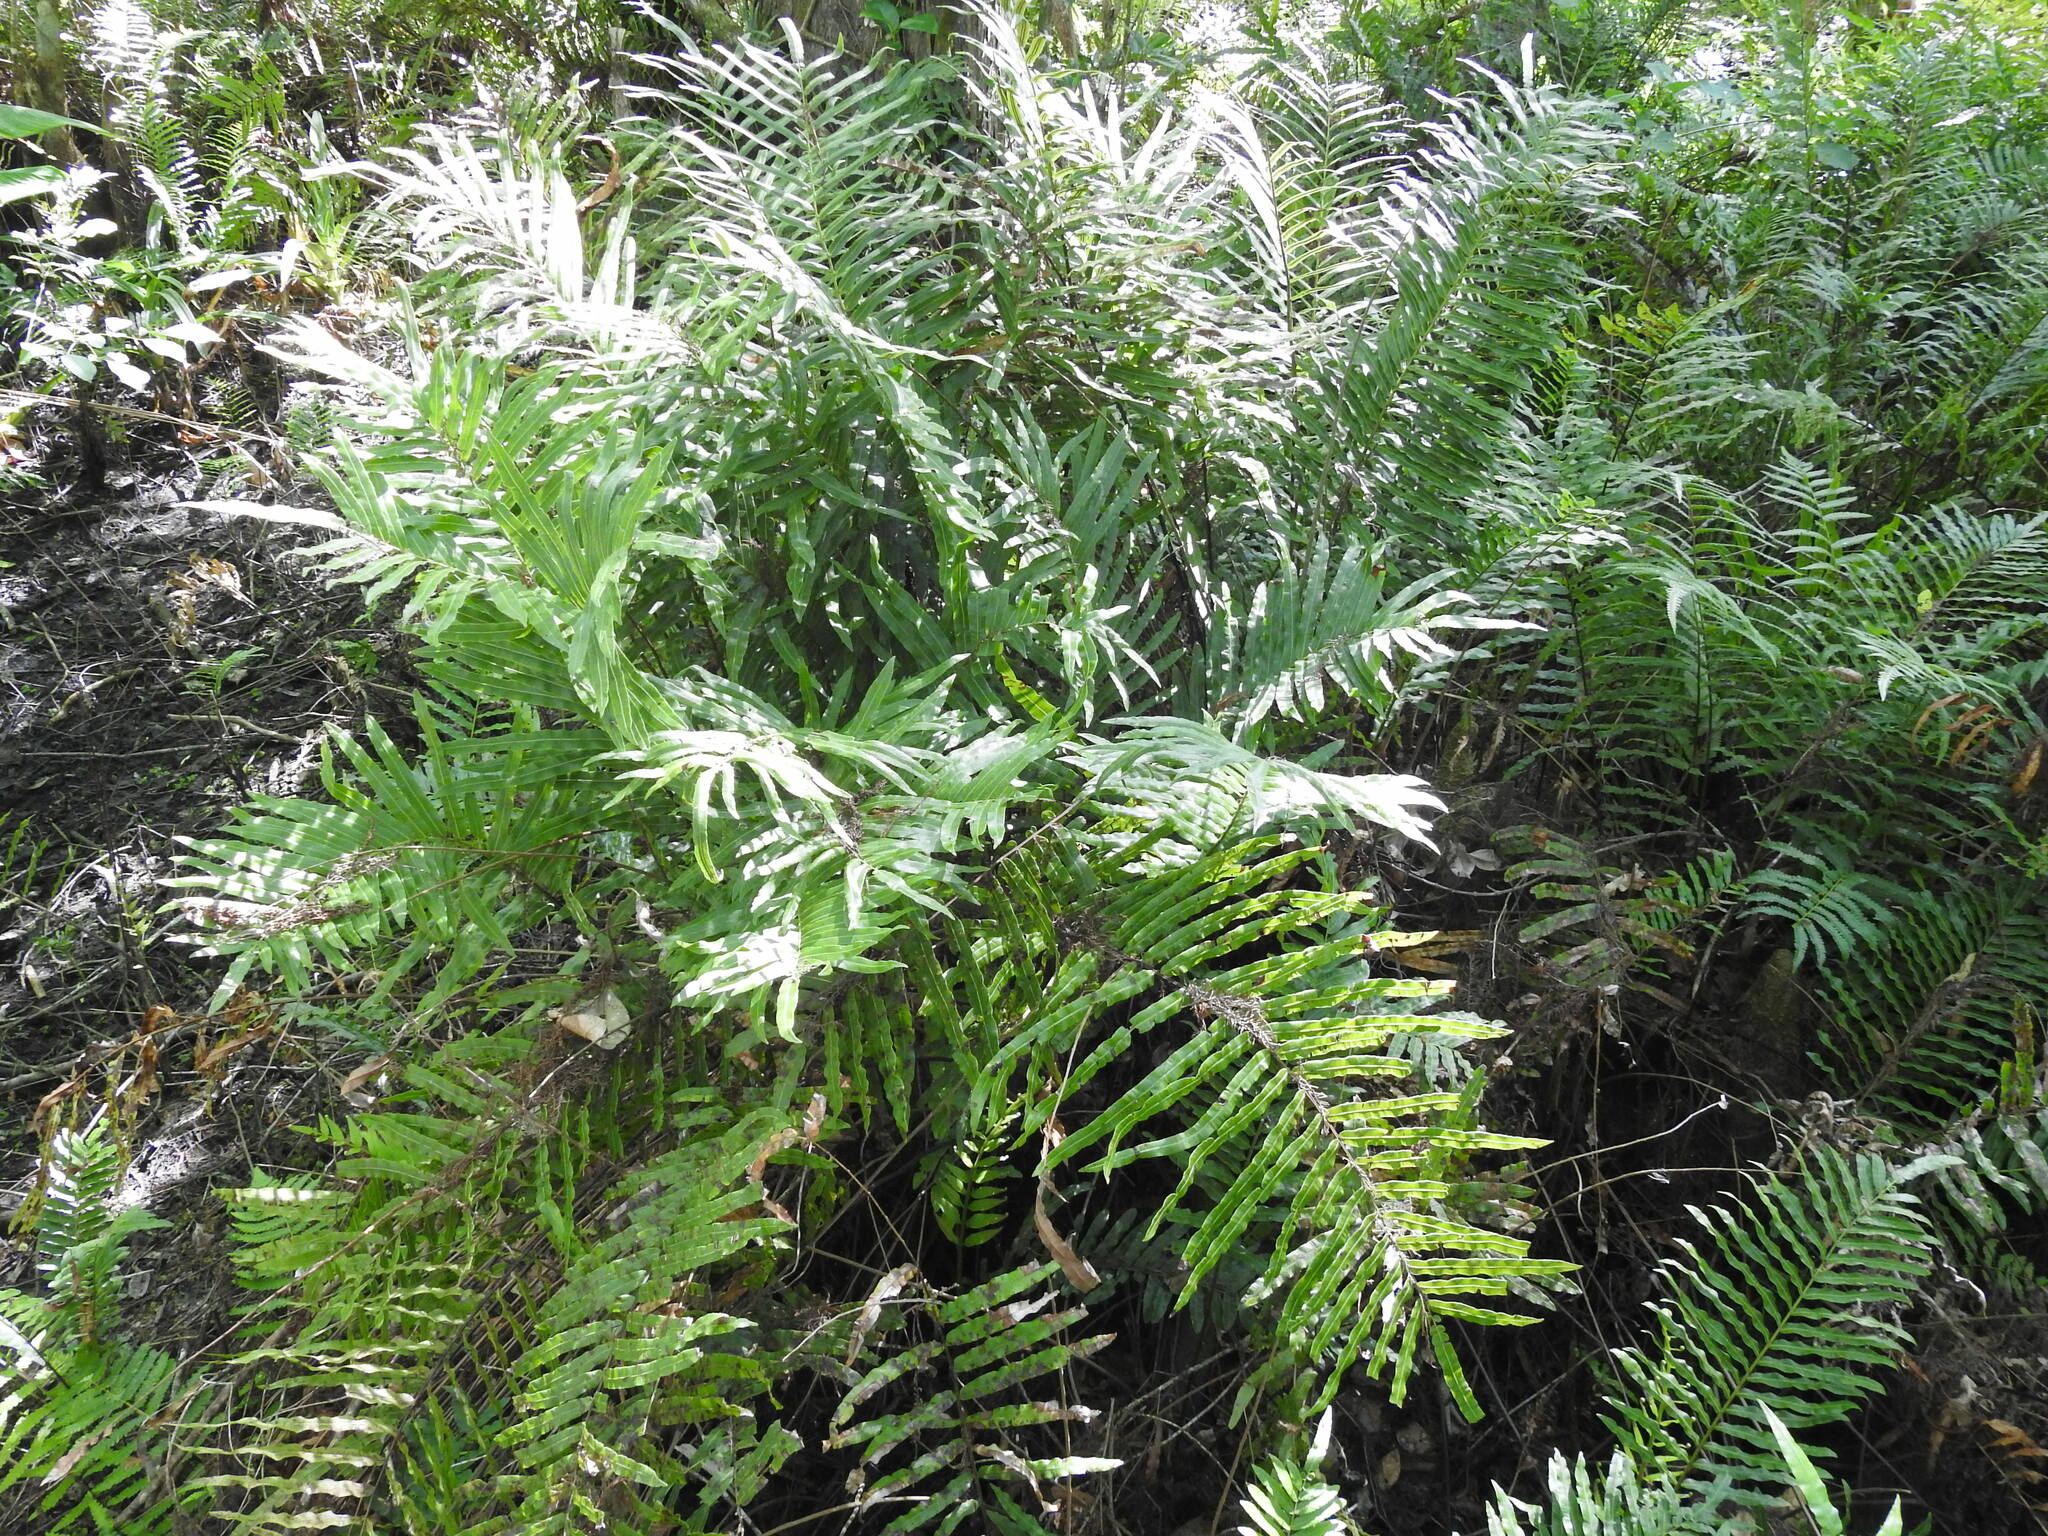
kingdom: Plantae
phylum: Tracheophyta
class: Polypodiopsida
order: Polypodiales
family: Blechnaceae
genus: Telmatoblechnum
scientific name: Telmatoblechnum serrulatum
